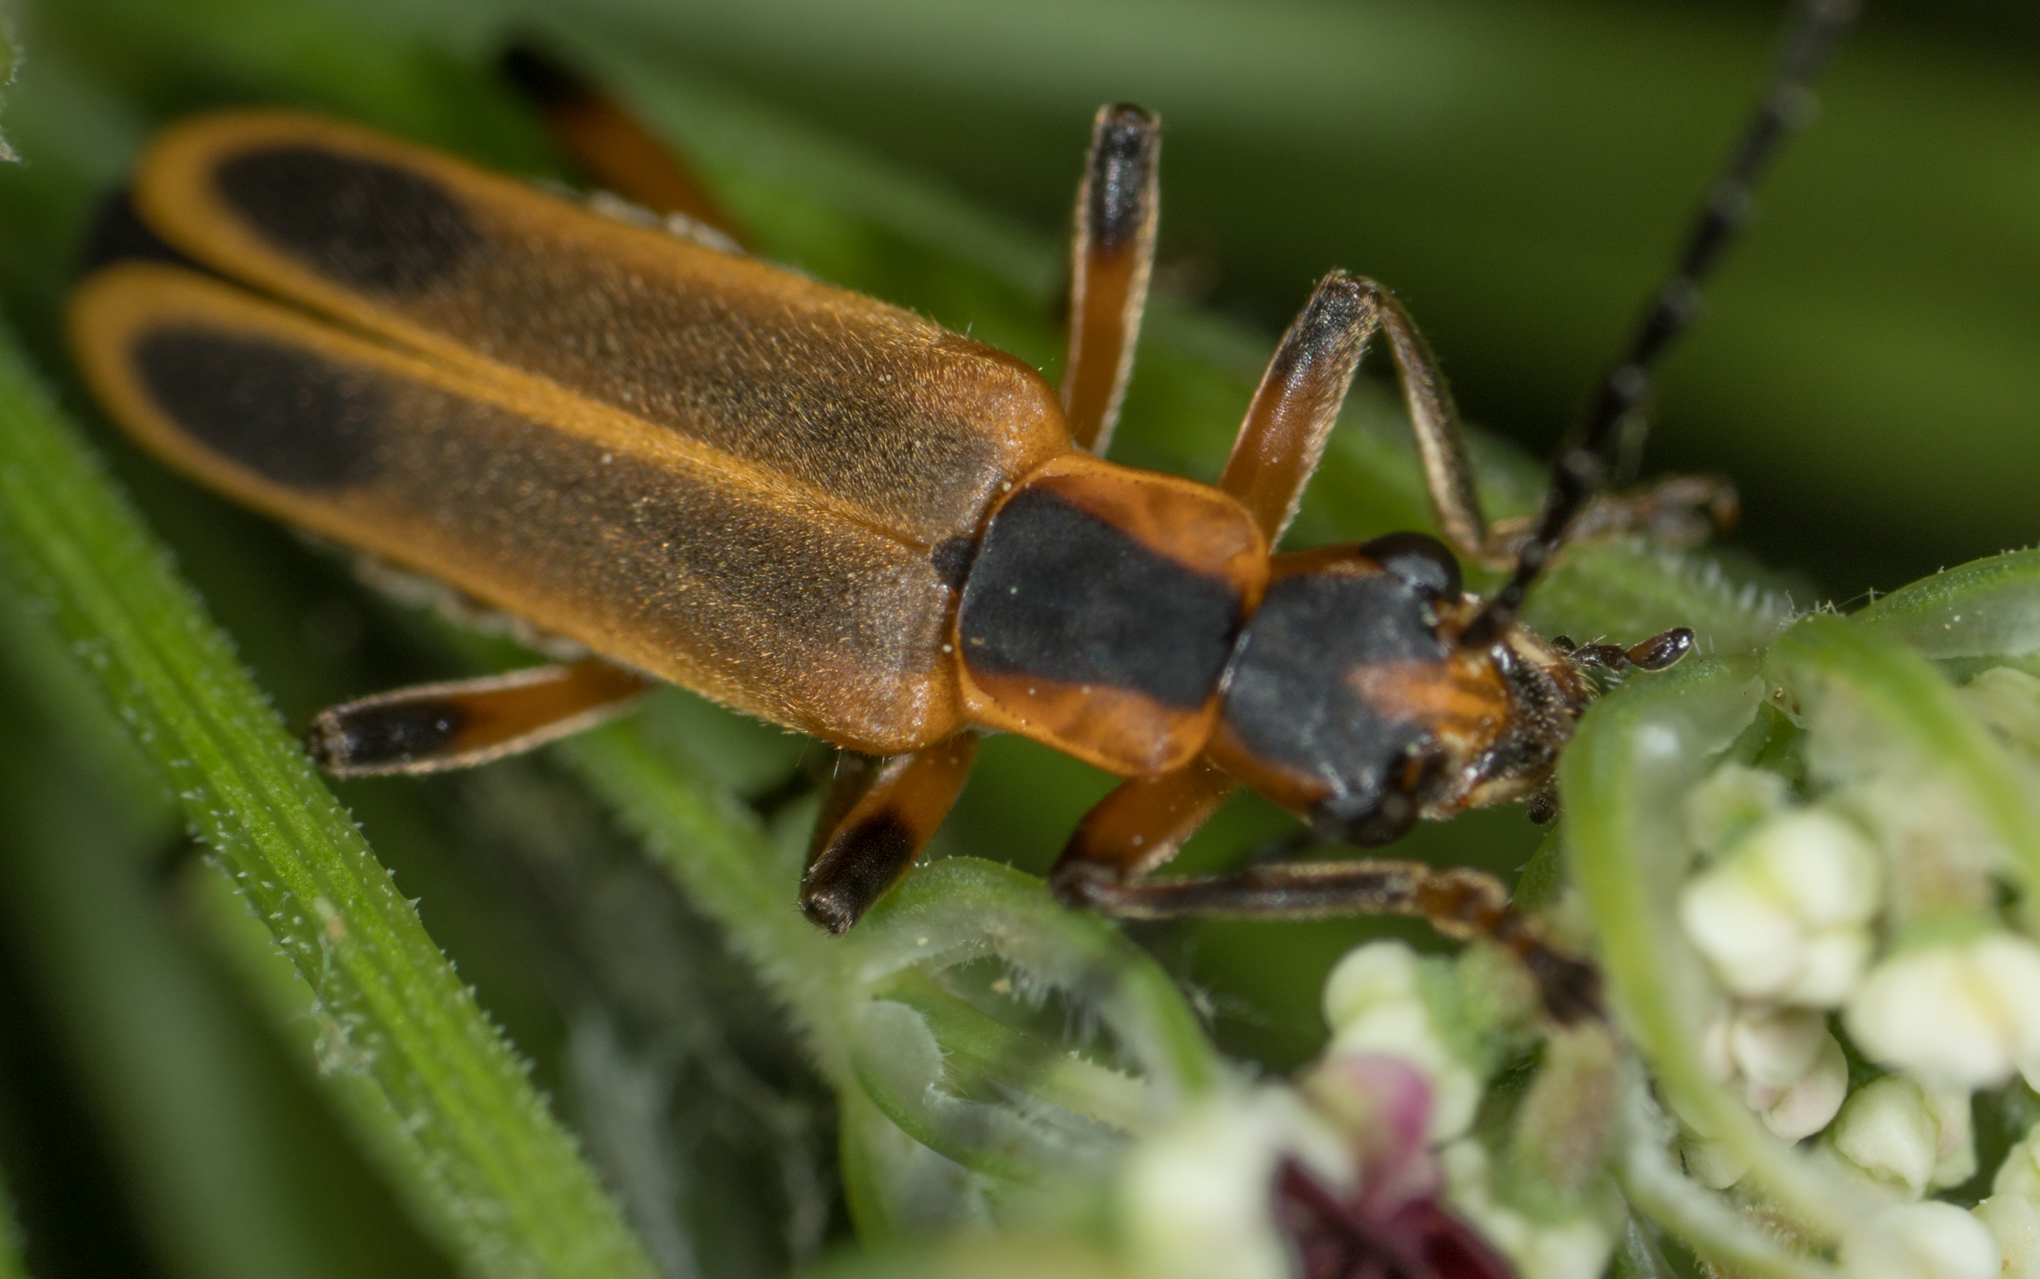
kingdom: Animalia
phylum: Arthropoda
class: Insecta
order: Coleoptera
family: Cantharidae
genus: Chauliognathus
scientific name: Chauliognathus marginatus
